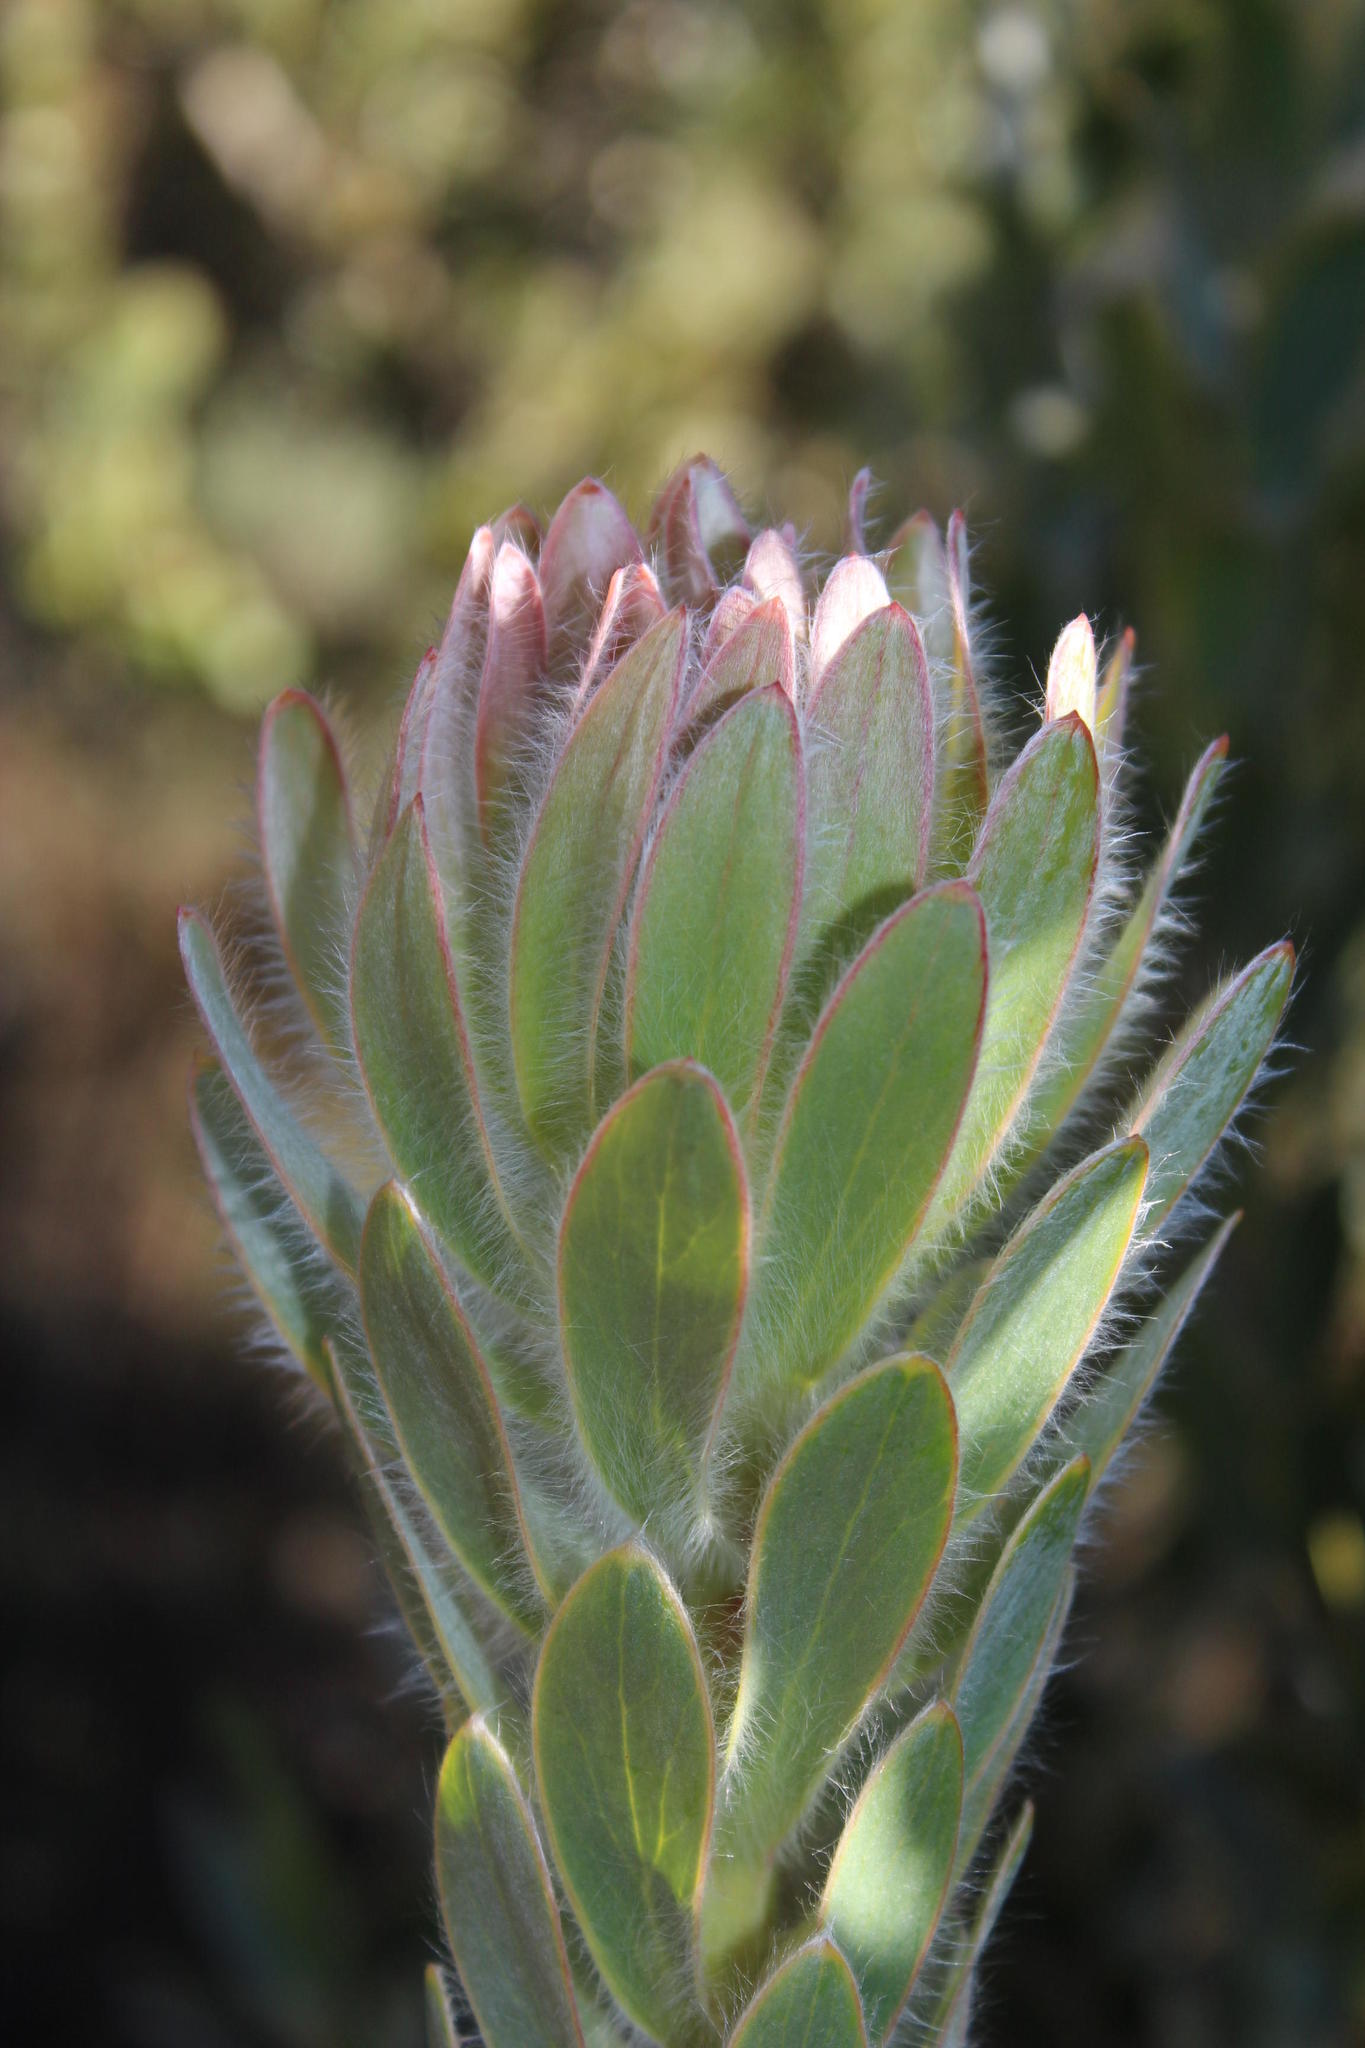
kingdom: Plantae
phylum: Tracheophyta
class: Magnoliopsida
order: Proteales
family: Proteaceae
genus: Leucadendron
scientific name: Leucadendron nervosum
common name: Silky-ruff conebush
